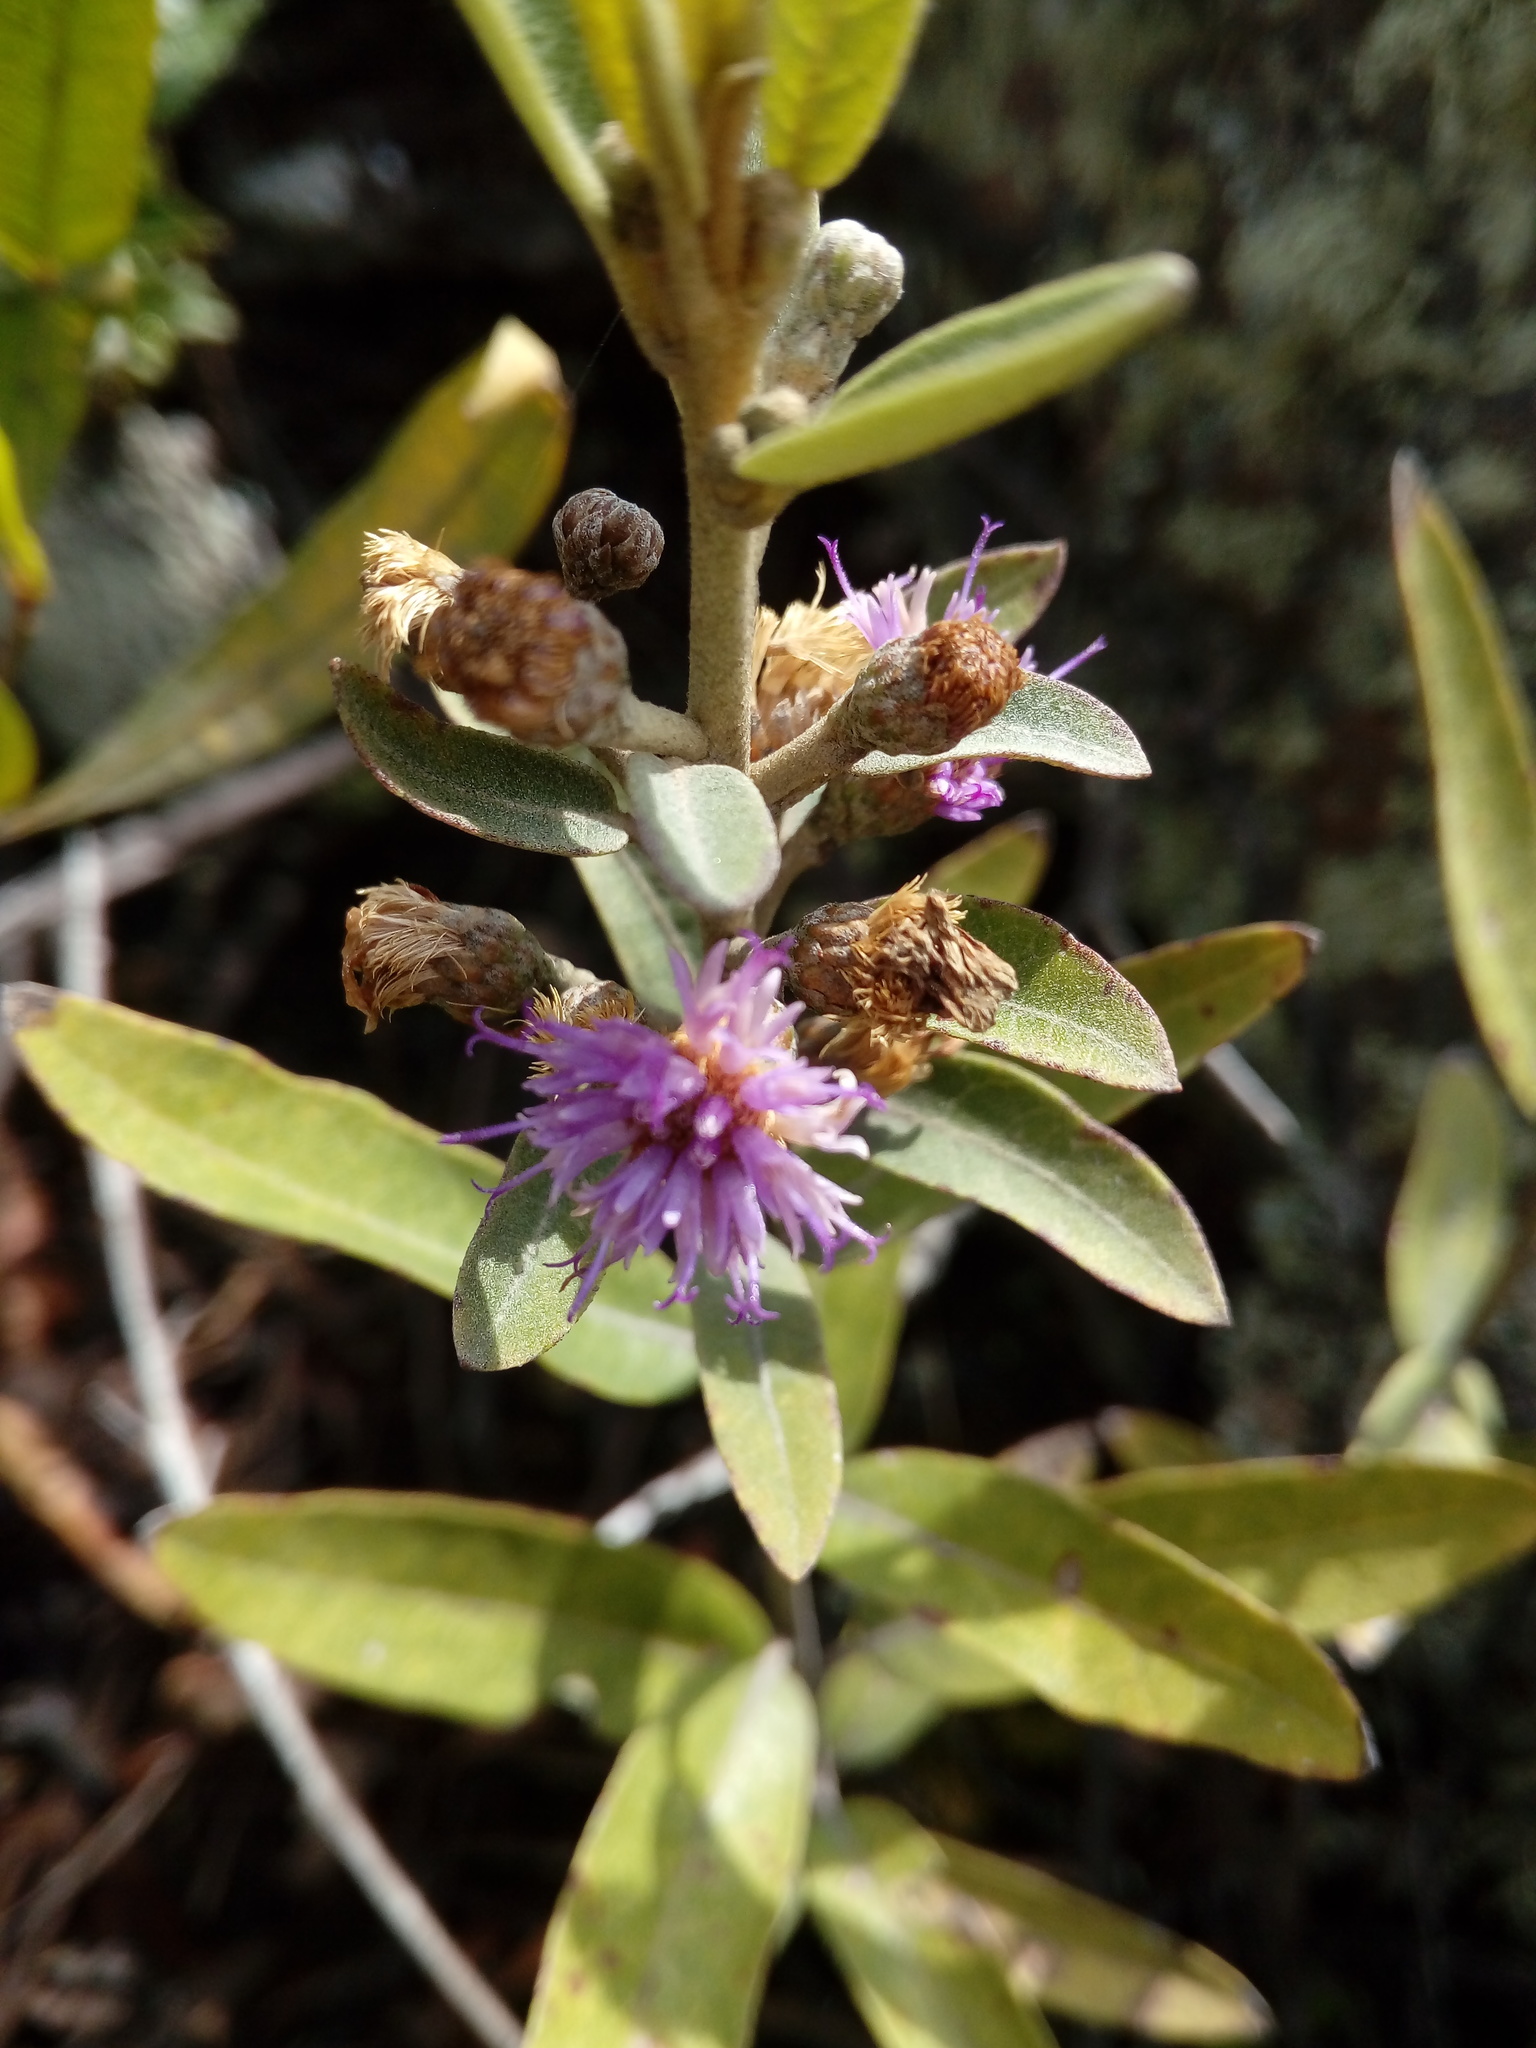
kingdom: Plantae
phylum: Tracheophyta
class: Magnoliopsida
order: Asterales
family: Asteraceae
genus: Lepidaploa
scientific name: Lepidaploa karstenii
